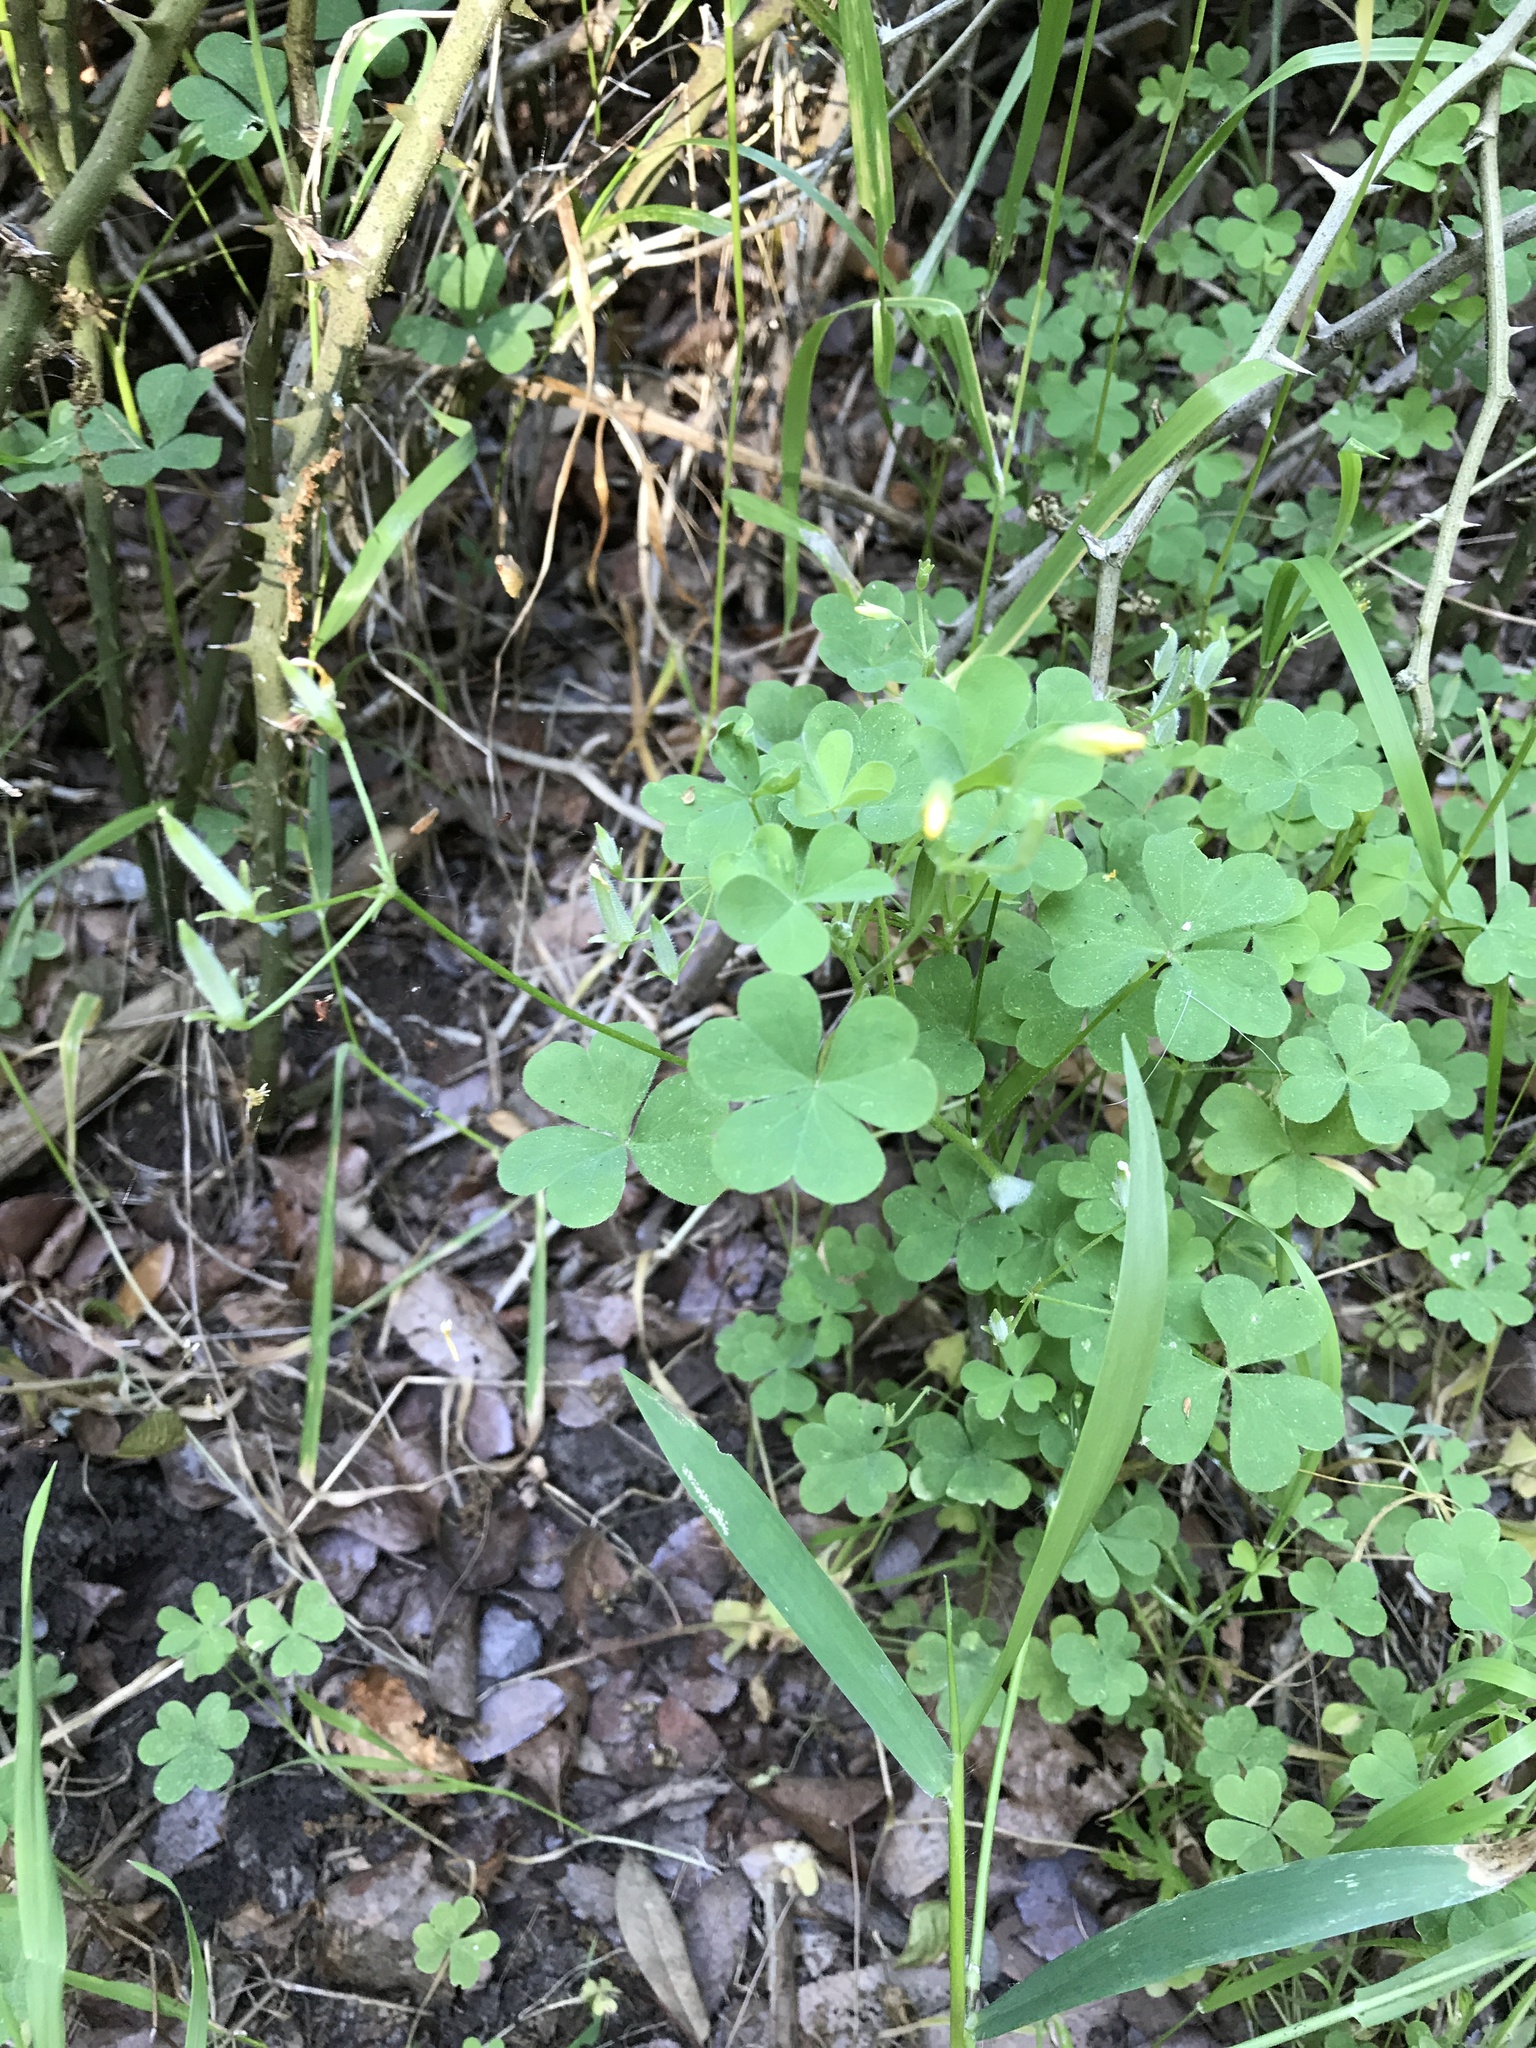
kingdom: Plantae
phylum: Tracheophyta
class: Magnoliopsida
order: Oxalidales
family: Oxalidaceae
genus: Oxalis
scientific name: Oxalis dillenii
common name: Sussex yellow-sorrel
